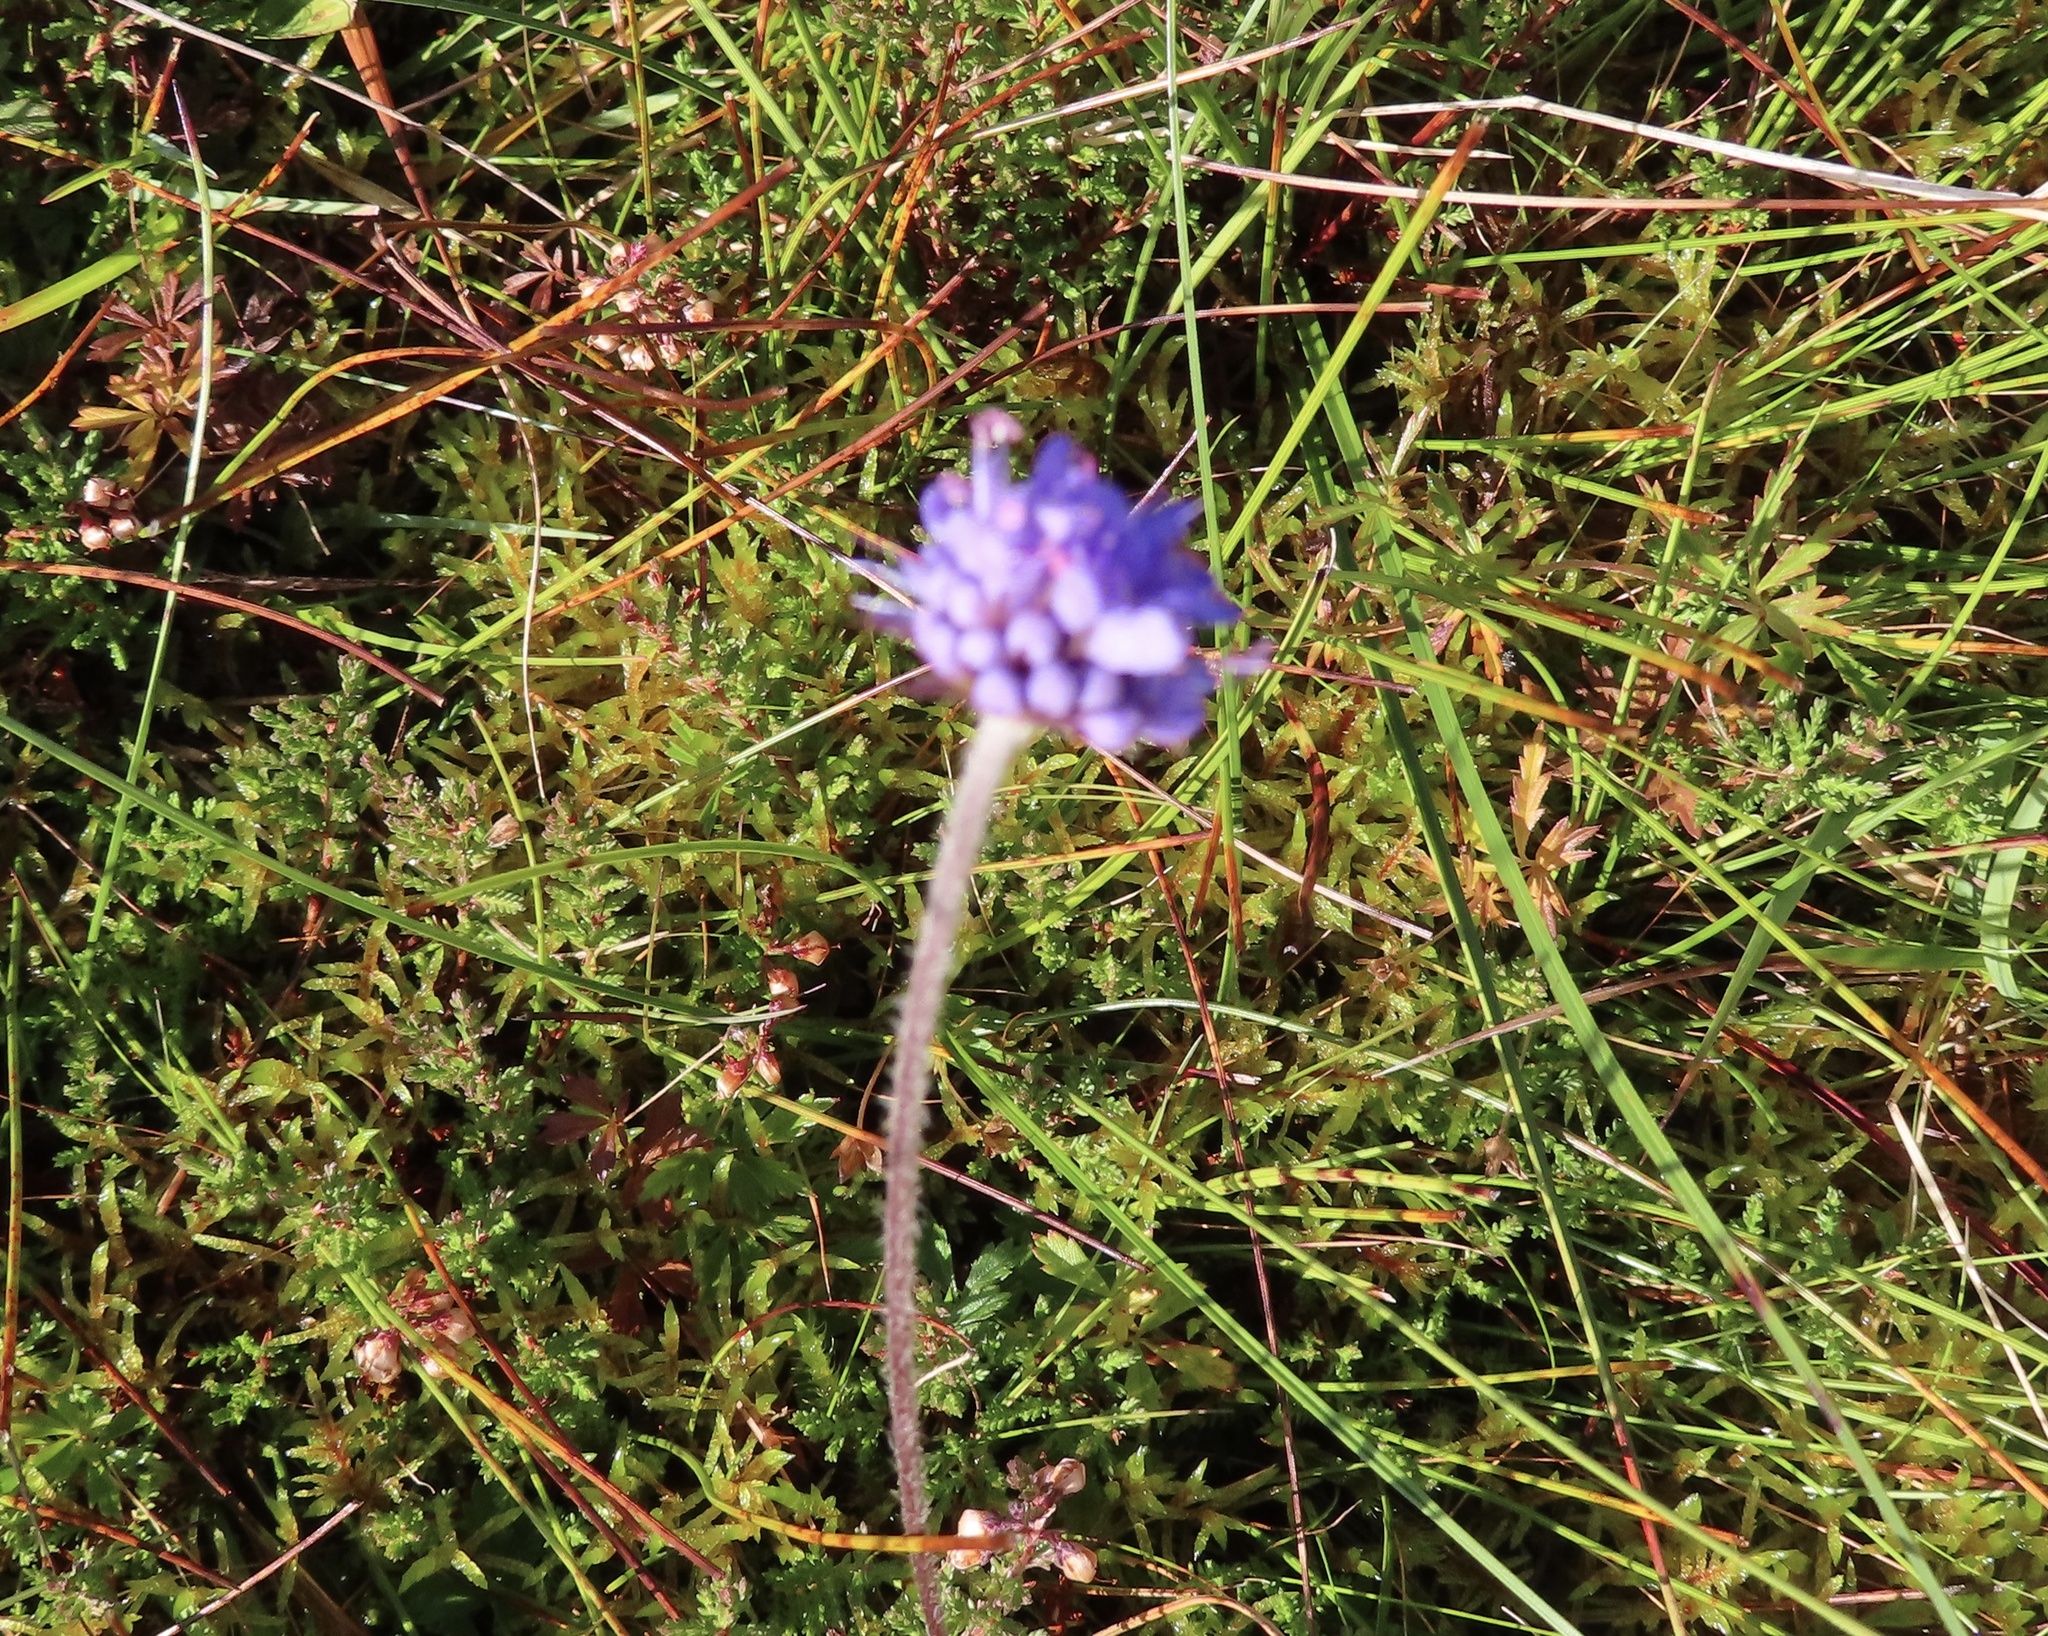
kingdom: Plantae
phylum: Tracheophyta
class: Magnoliopsida
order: Dipsacales
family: Caprifoliaceae
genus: Succisa
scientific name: Succisa pratensis
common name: Devil's-bit
